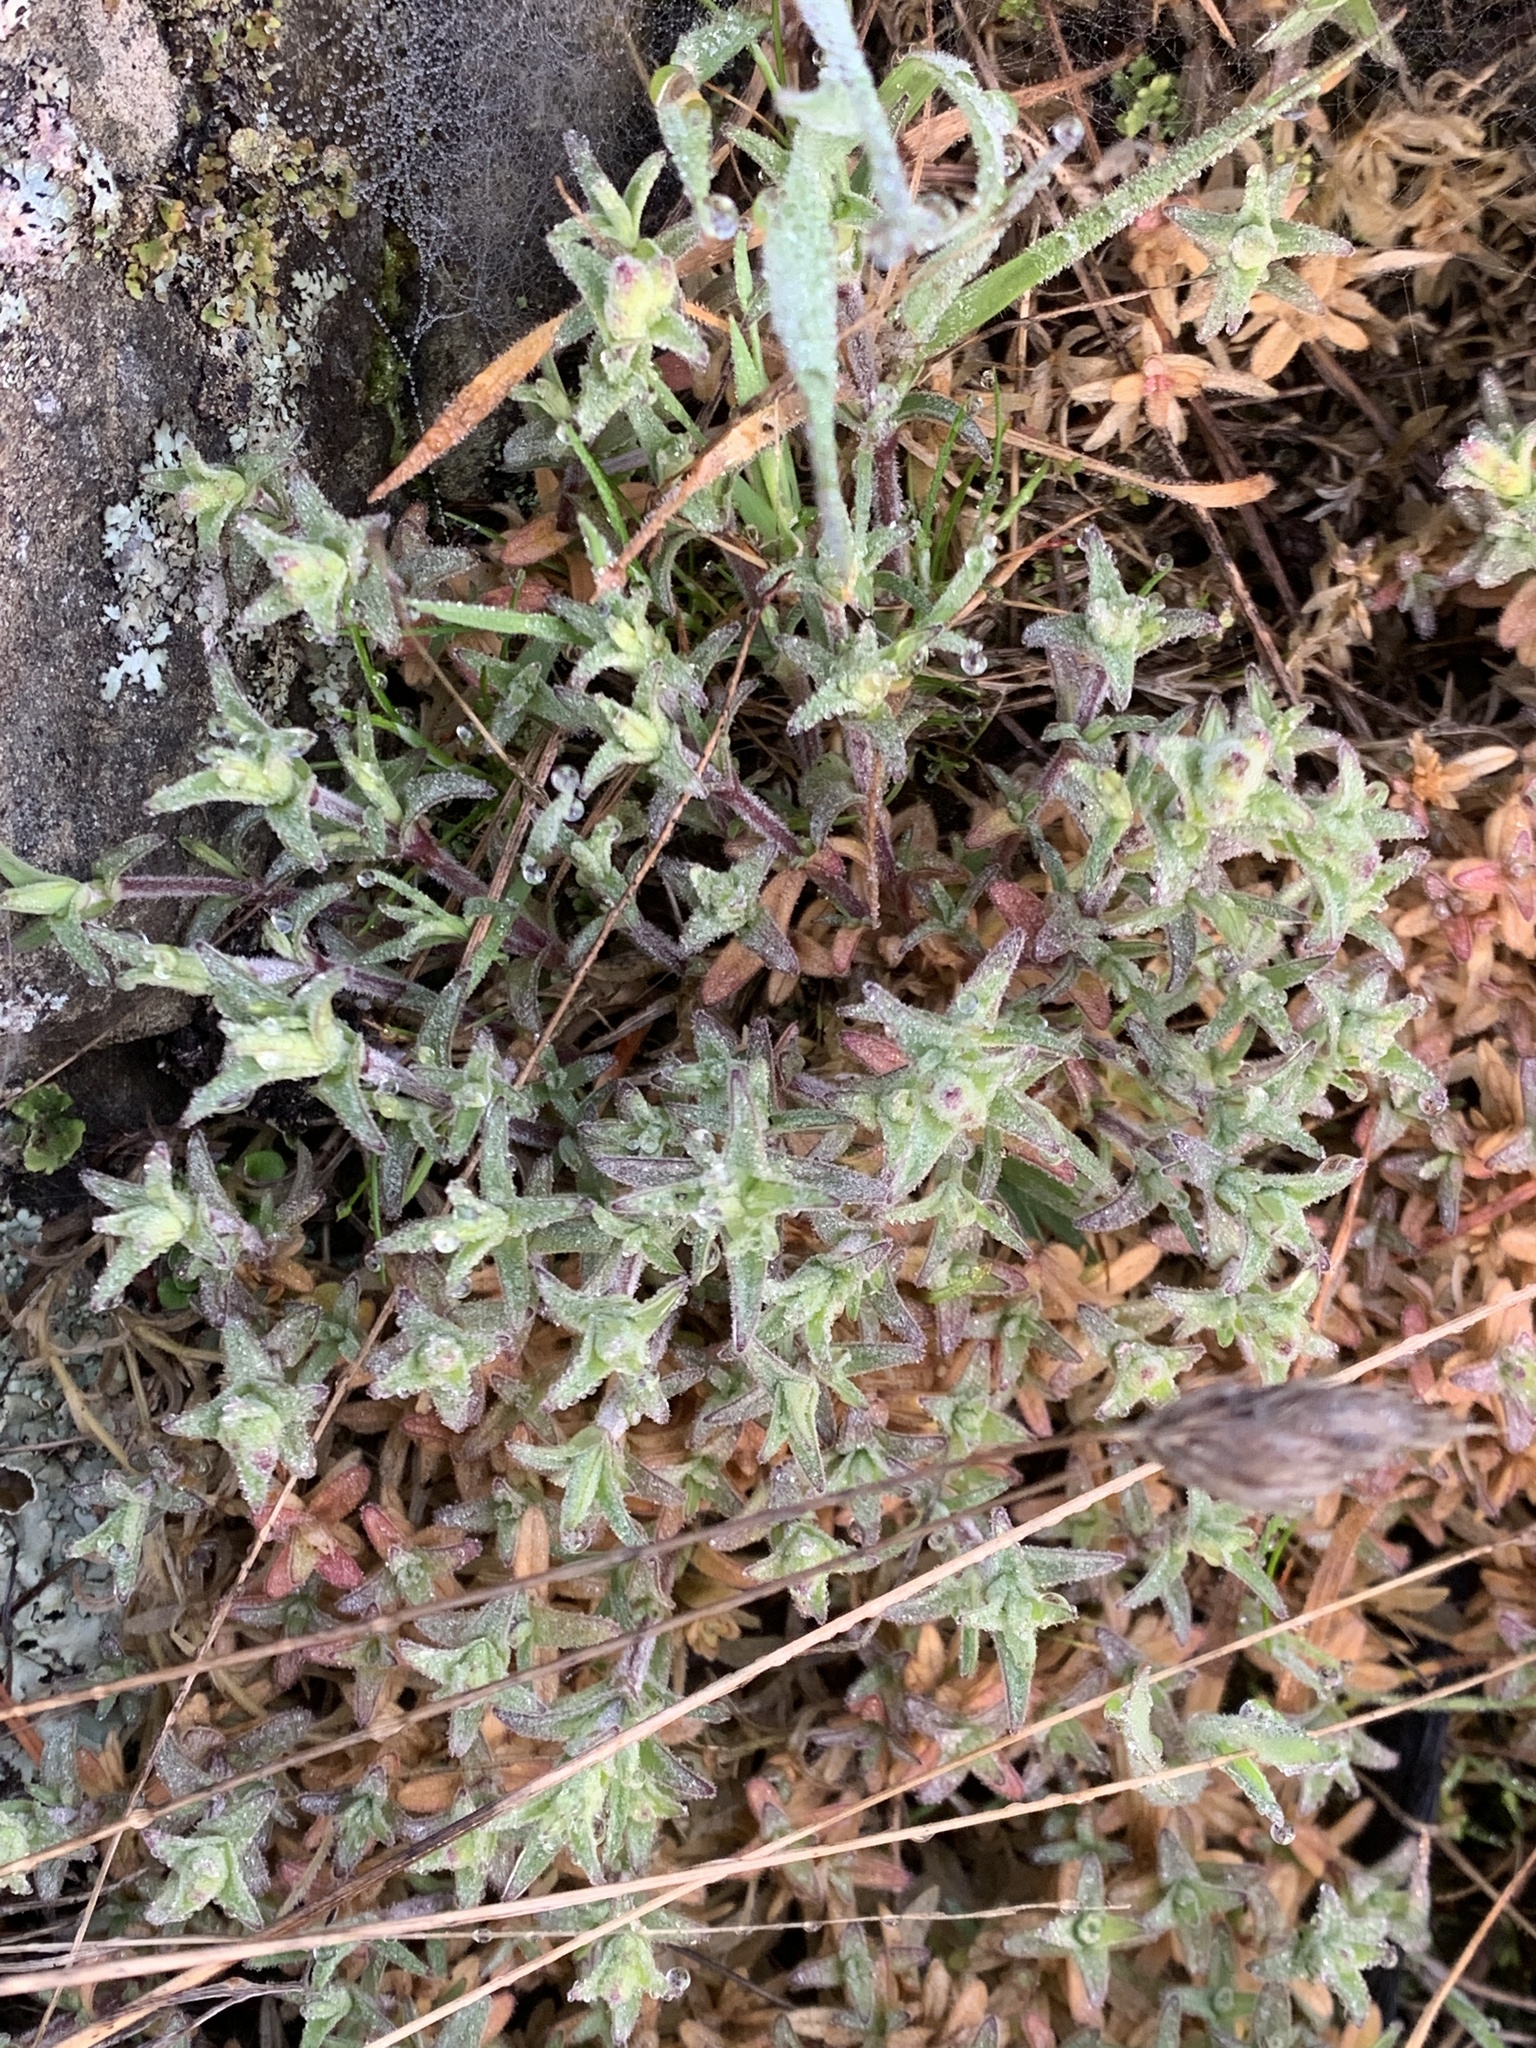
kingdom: Plantae
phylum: Tracheophyta
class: Magnoliopsida
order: Caryophyllales
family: Caryophyllaceae
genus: Cerastium
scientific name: Cerastium arvense
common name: Field mouse-ear
